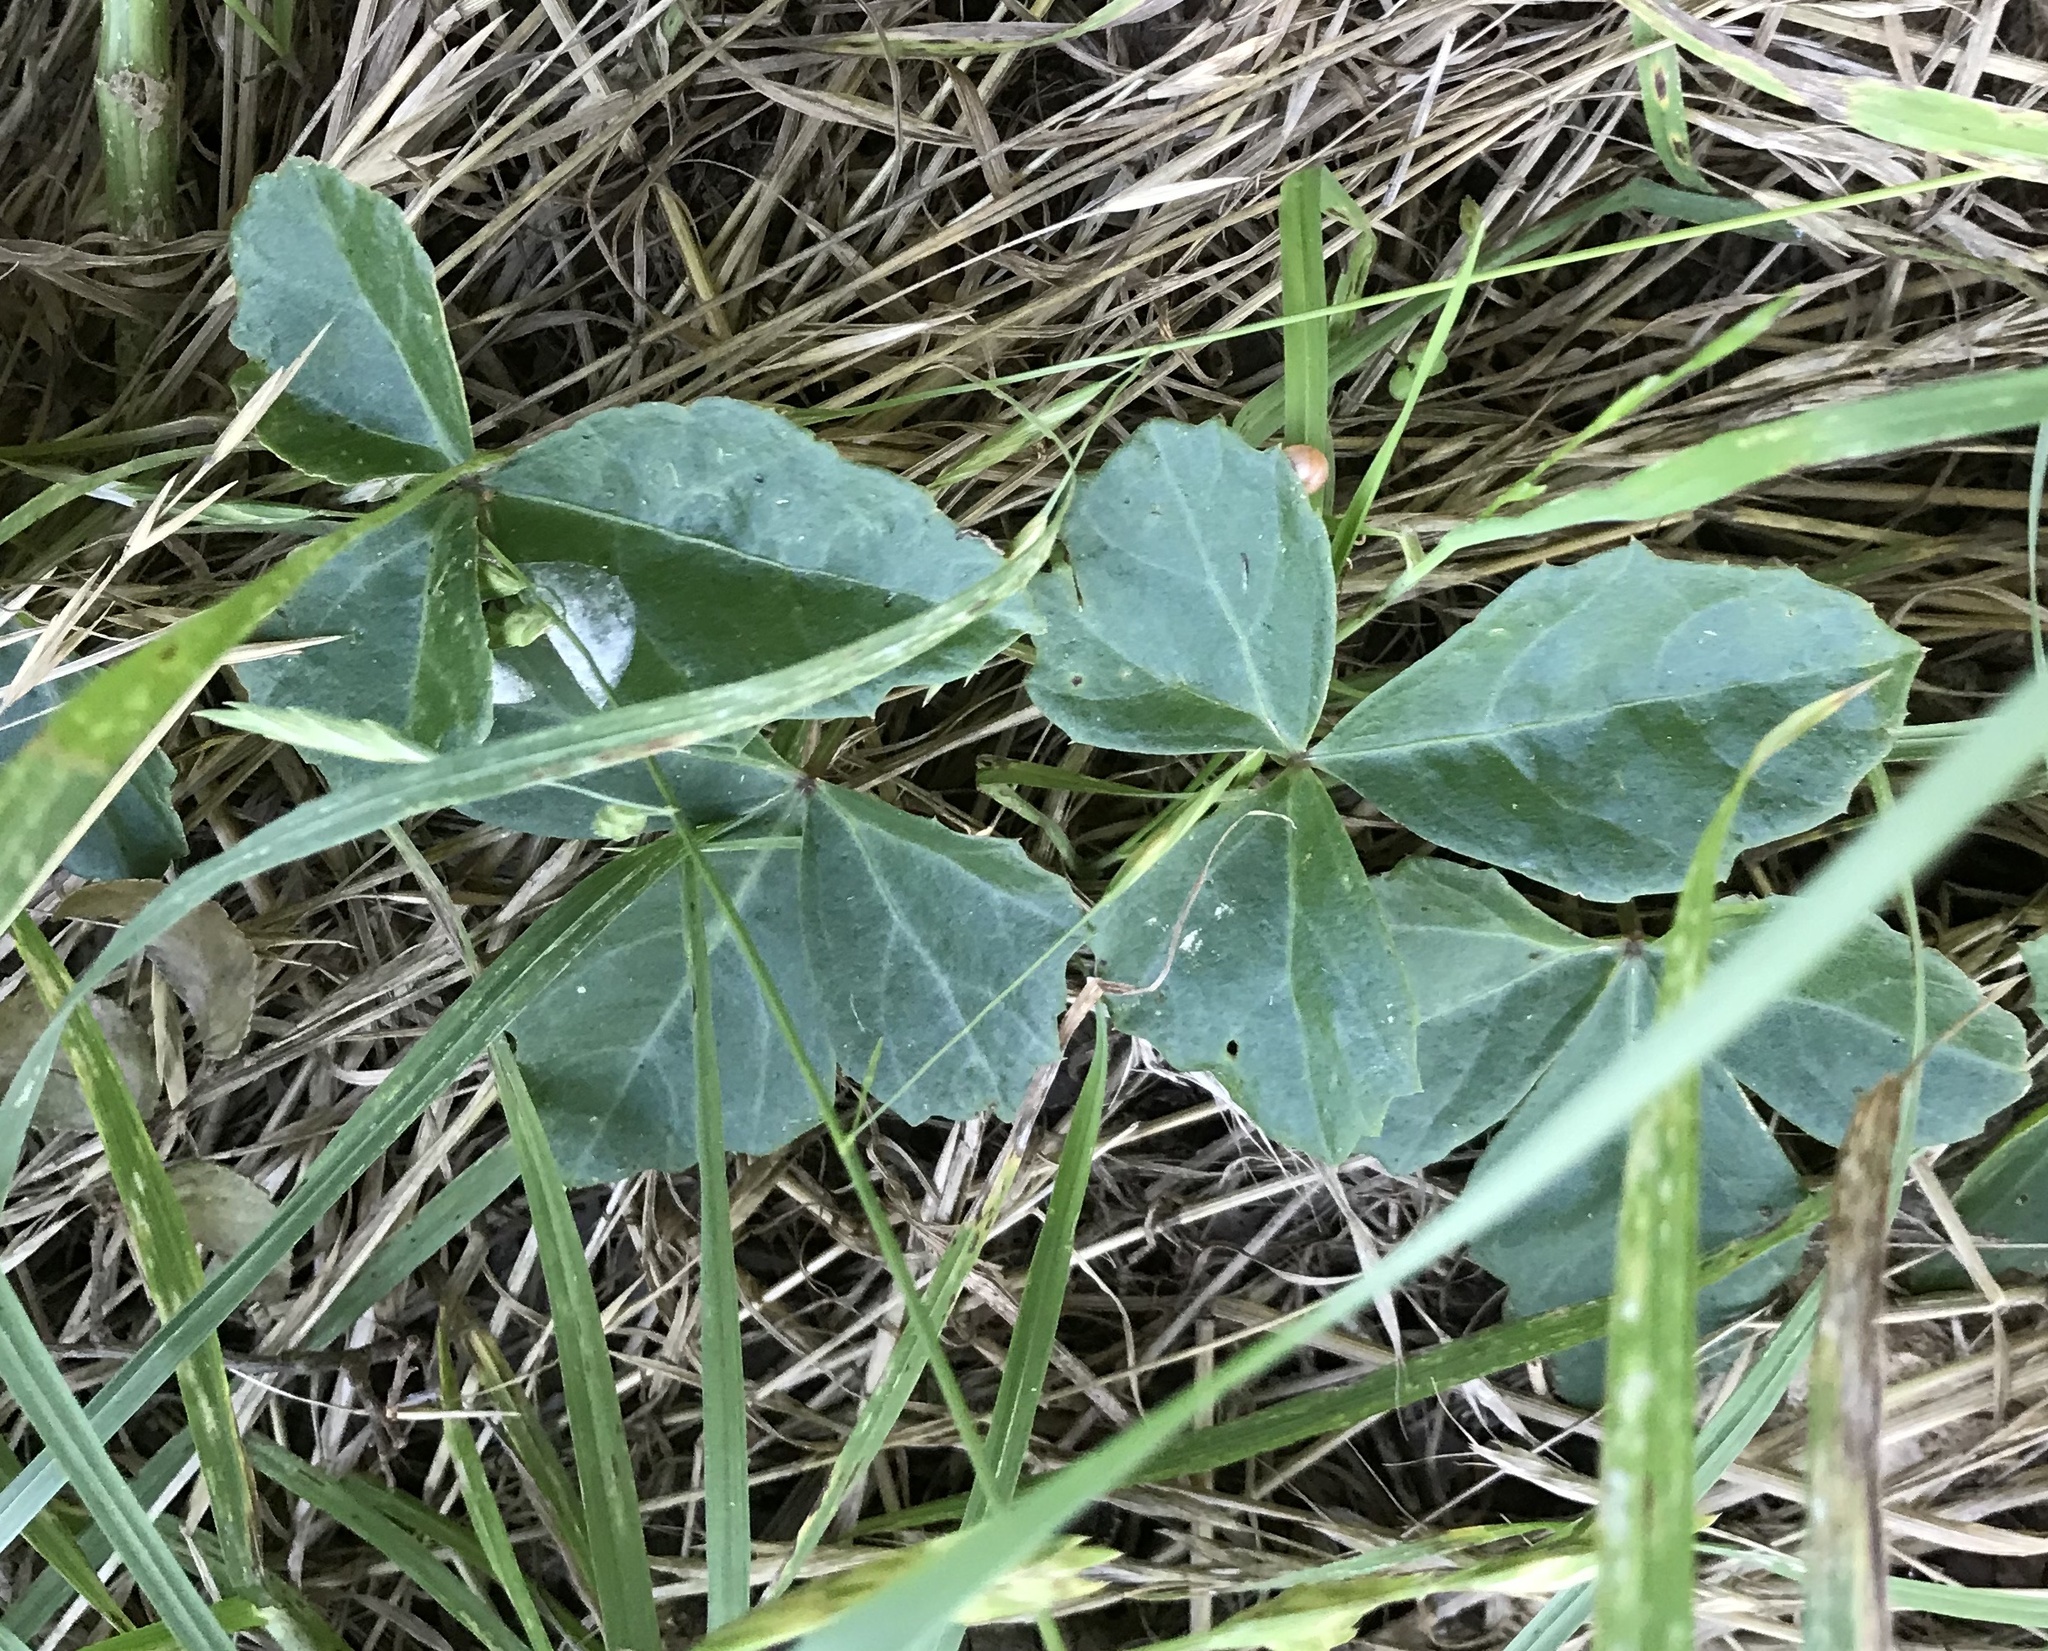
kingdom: Plantae
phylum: Tracheophyta
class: Magnoliopsida
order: Vitales
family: Vitaceae
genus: Cissus
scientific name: Cissus trifoliata
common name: Vine-sorrel
